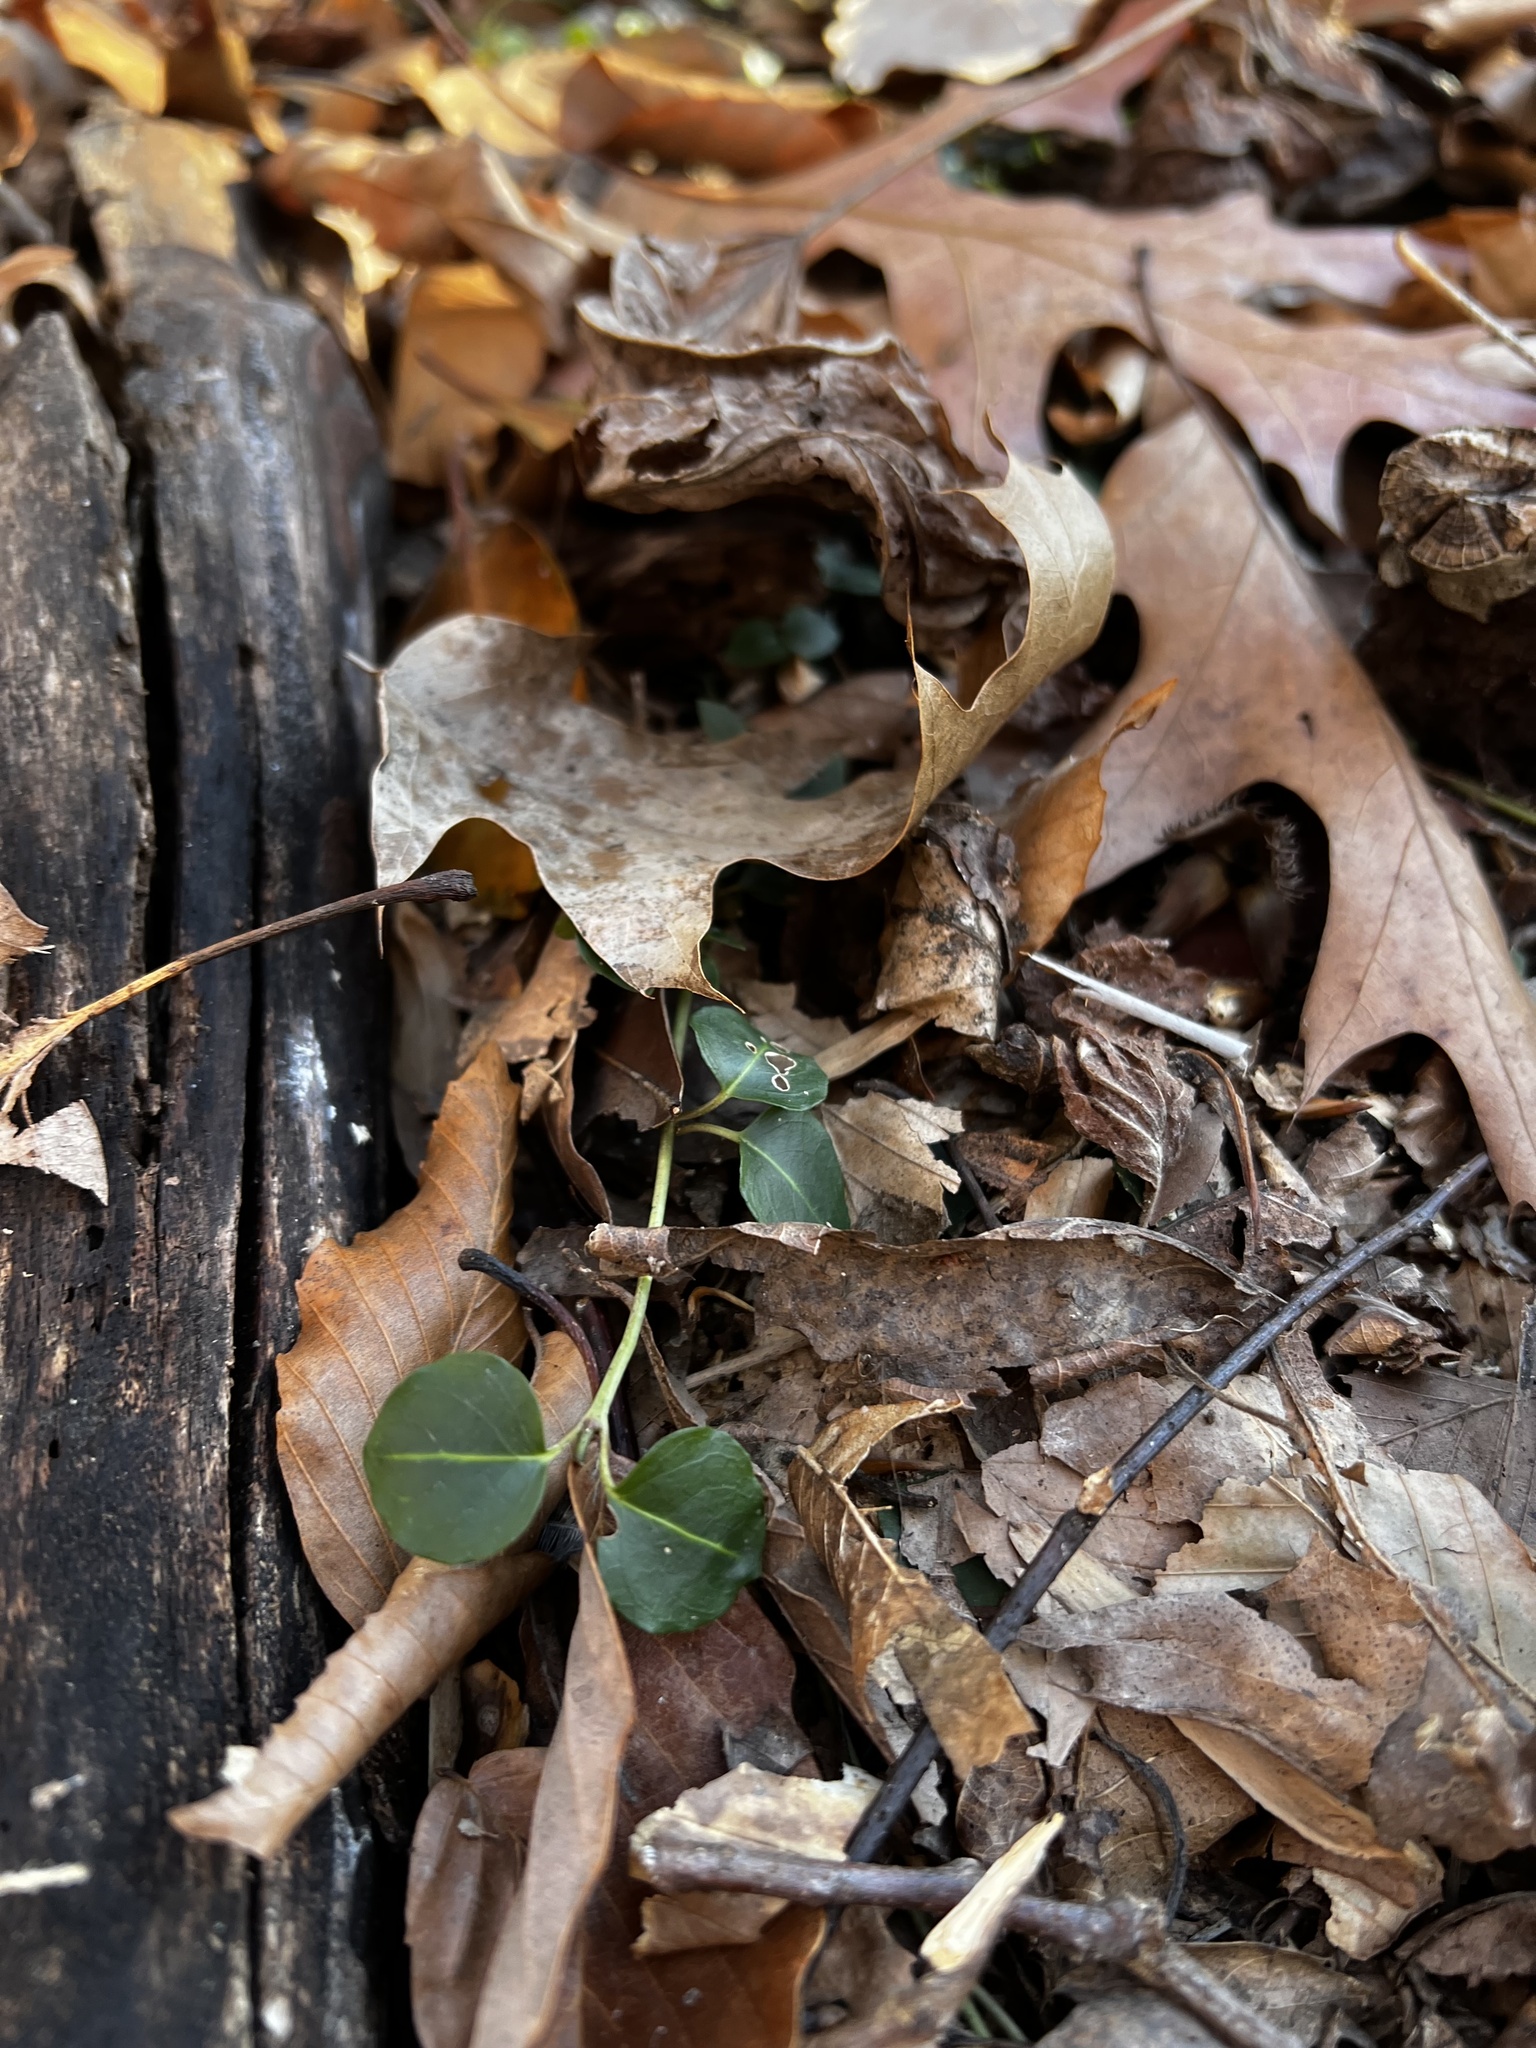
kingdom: Plantae
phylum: Tracheophyta
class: Magnoliopsida
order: Gentianales
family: Rubiaceae
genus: Mitchella
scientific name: Mitchella repens
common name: Partridge-berry
